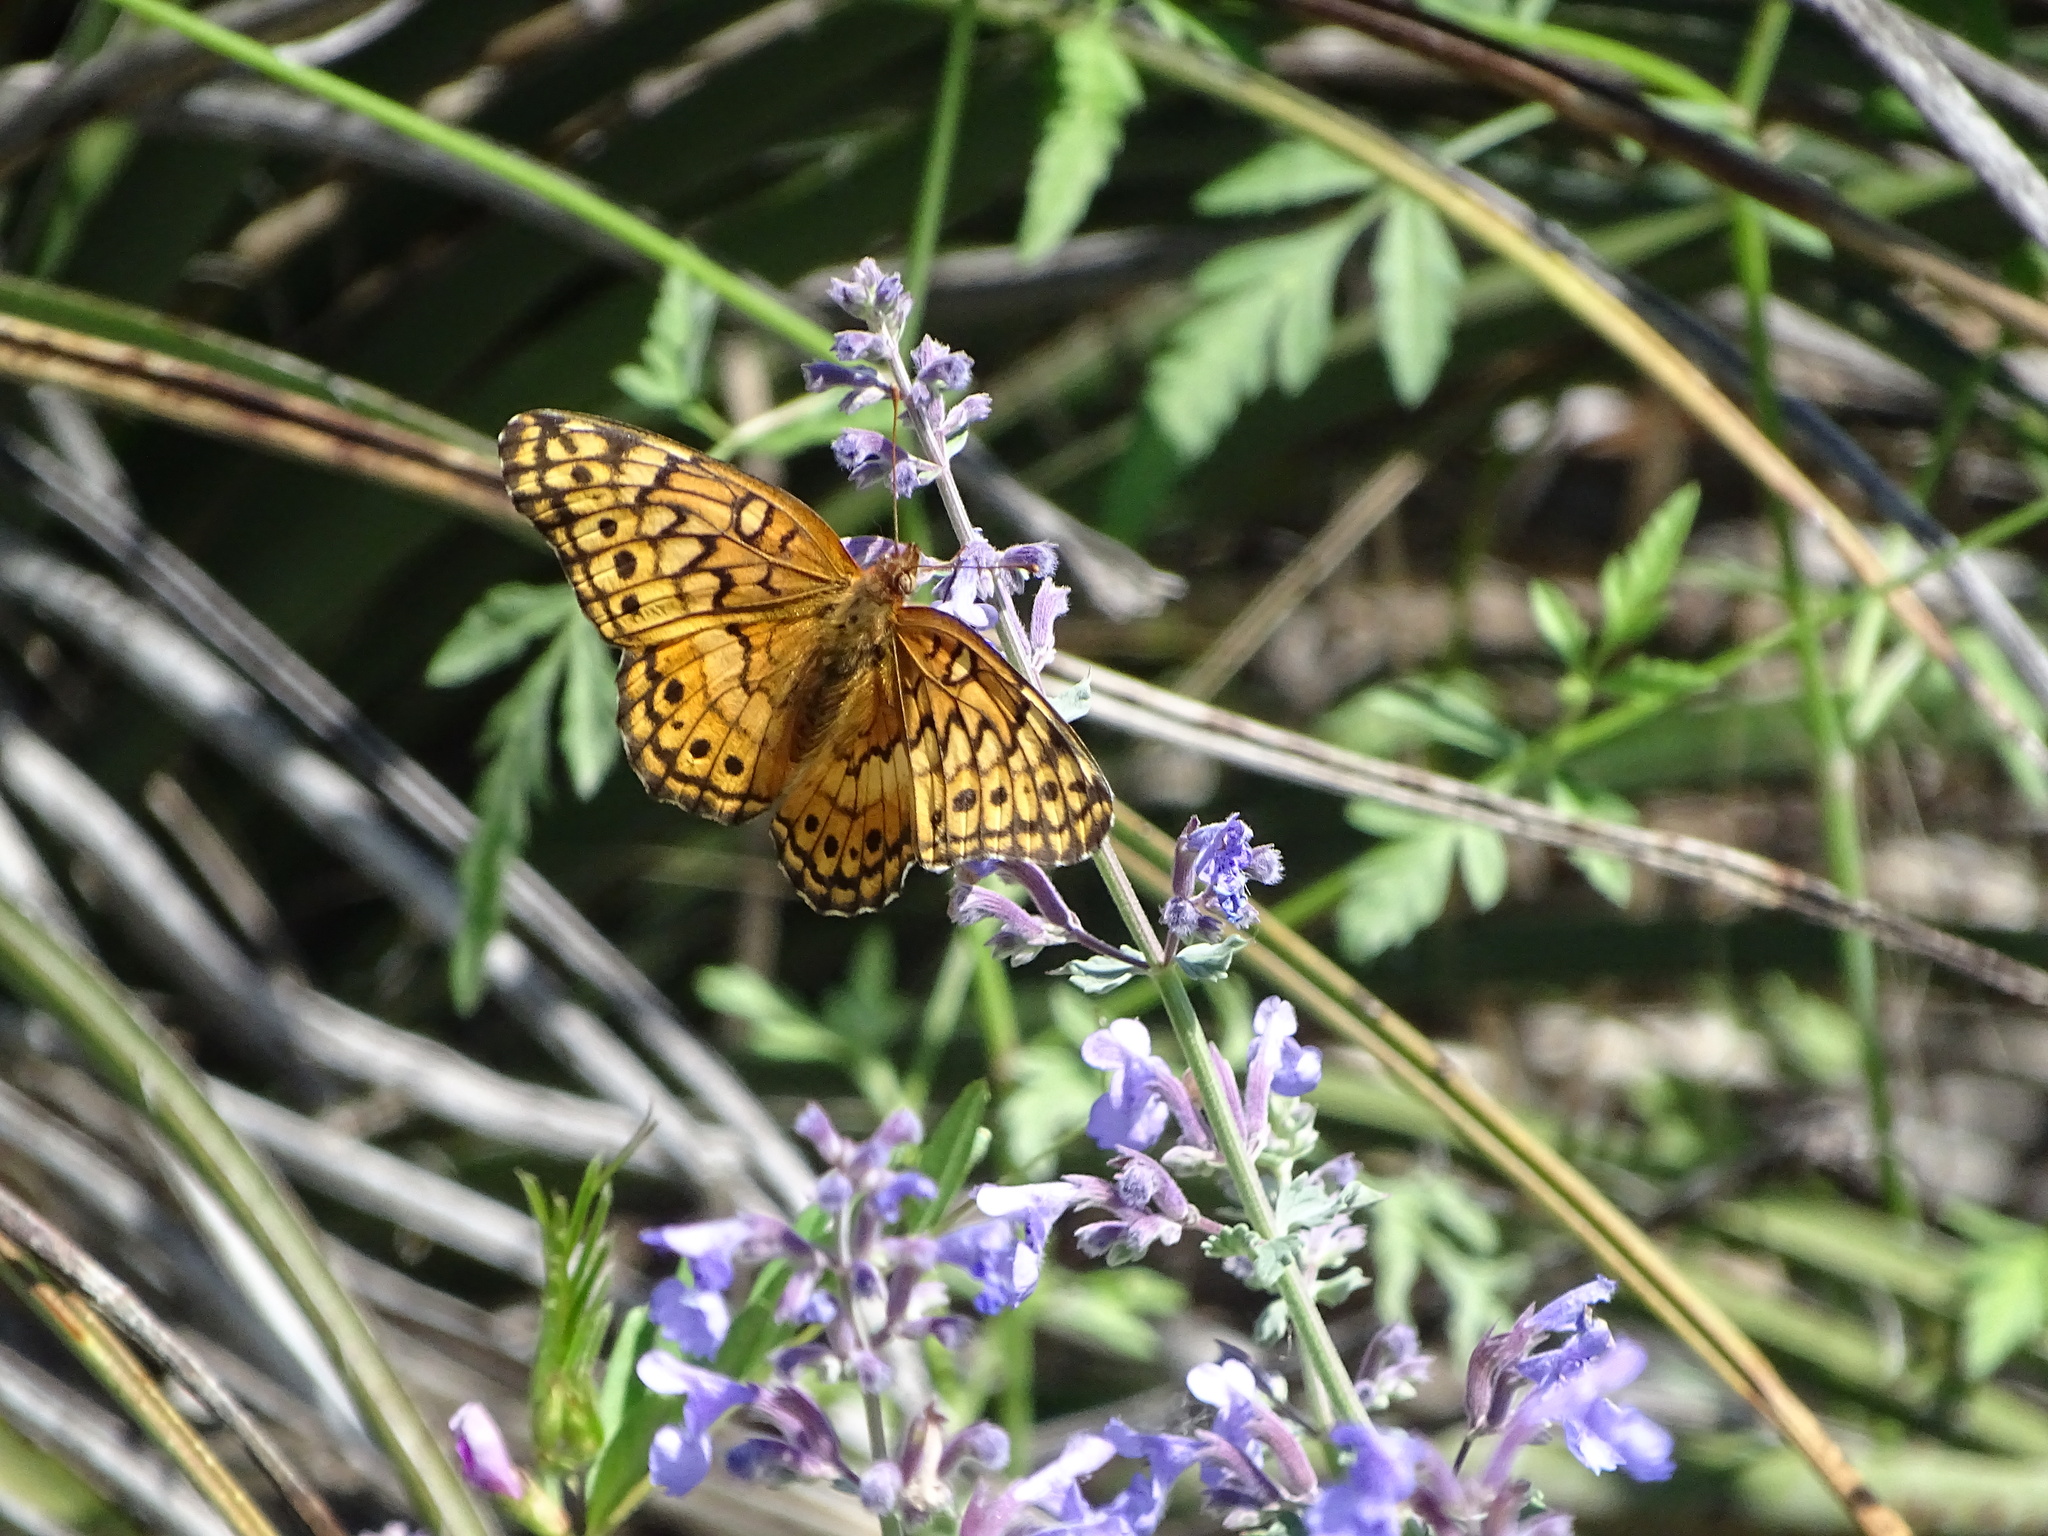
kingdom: Animalia
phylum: Arthropoda
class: Insecta
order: Lepidoptera
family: Nymphalidae
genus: Euptoieta
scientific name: Euptoieta claudia
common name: Variegated fritillary
